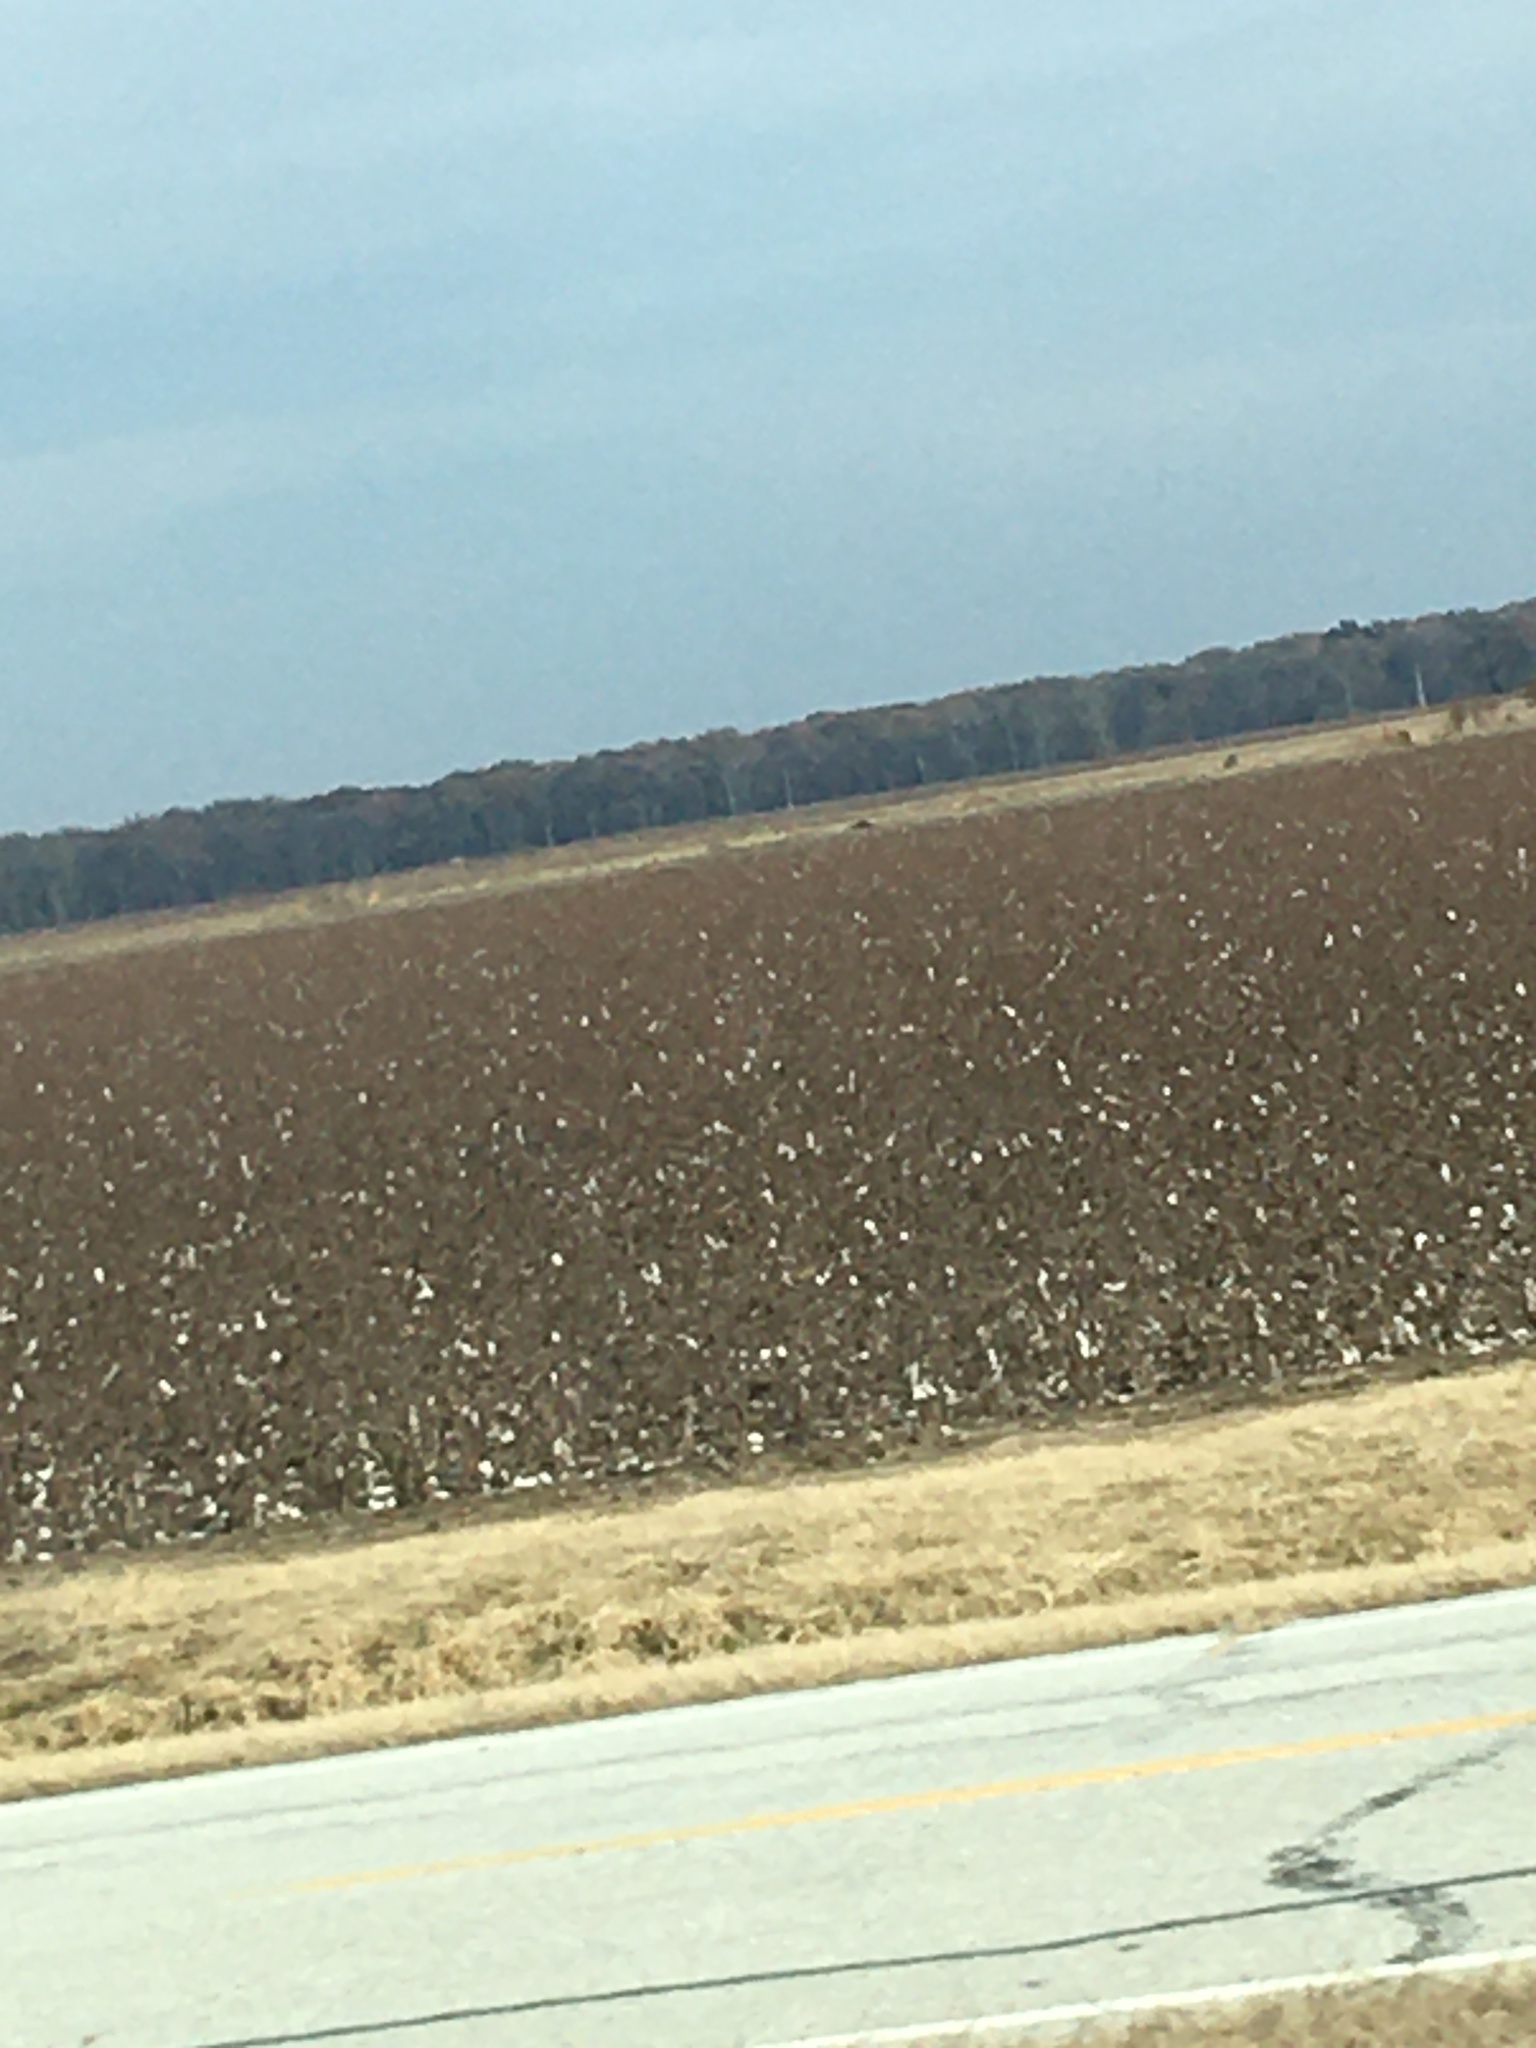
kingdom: Plantae
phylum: Tracheophyta
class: Magnoliopsida
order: Malvales
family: Malvaceae
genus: Gossypium
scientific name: Gossypium hirsutum
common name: Cotton
